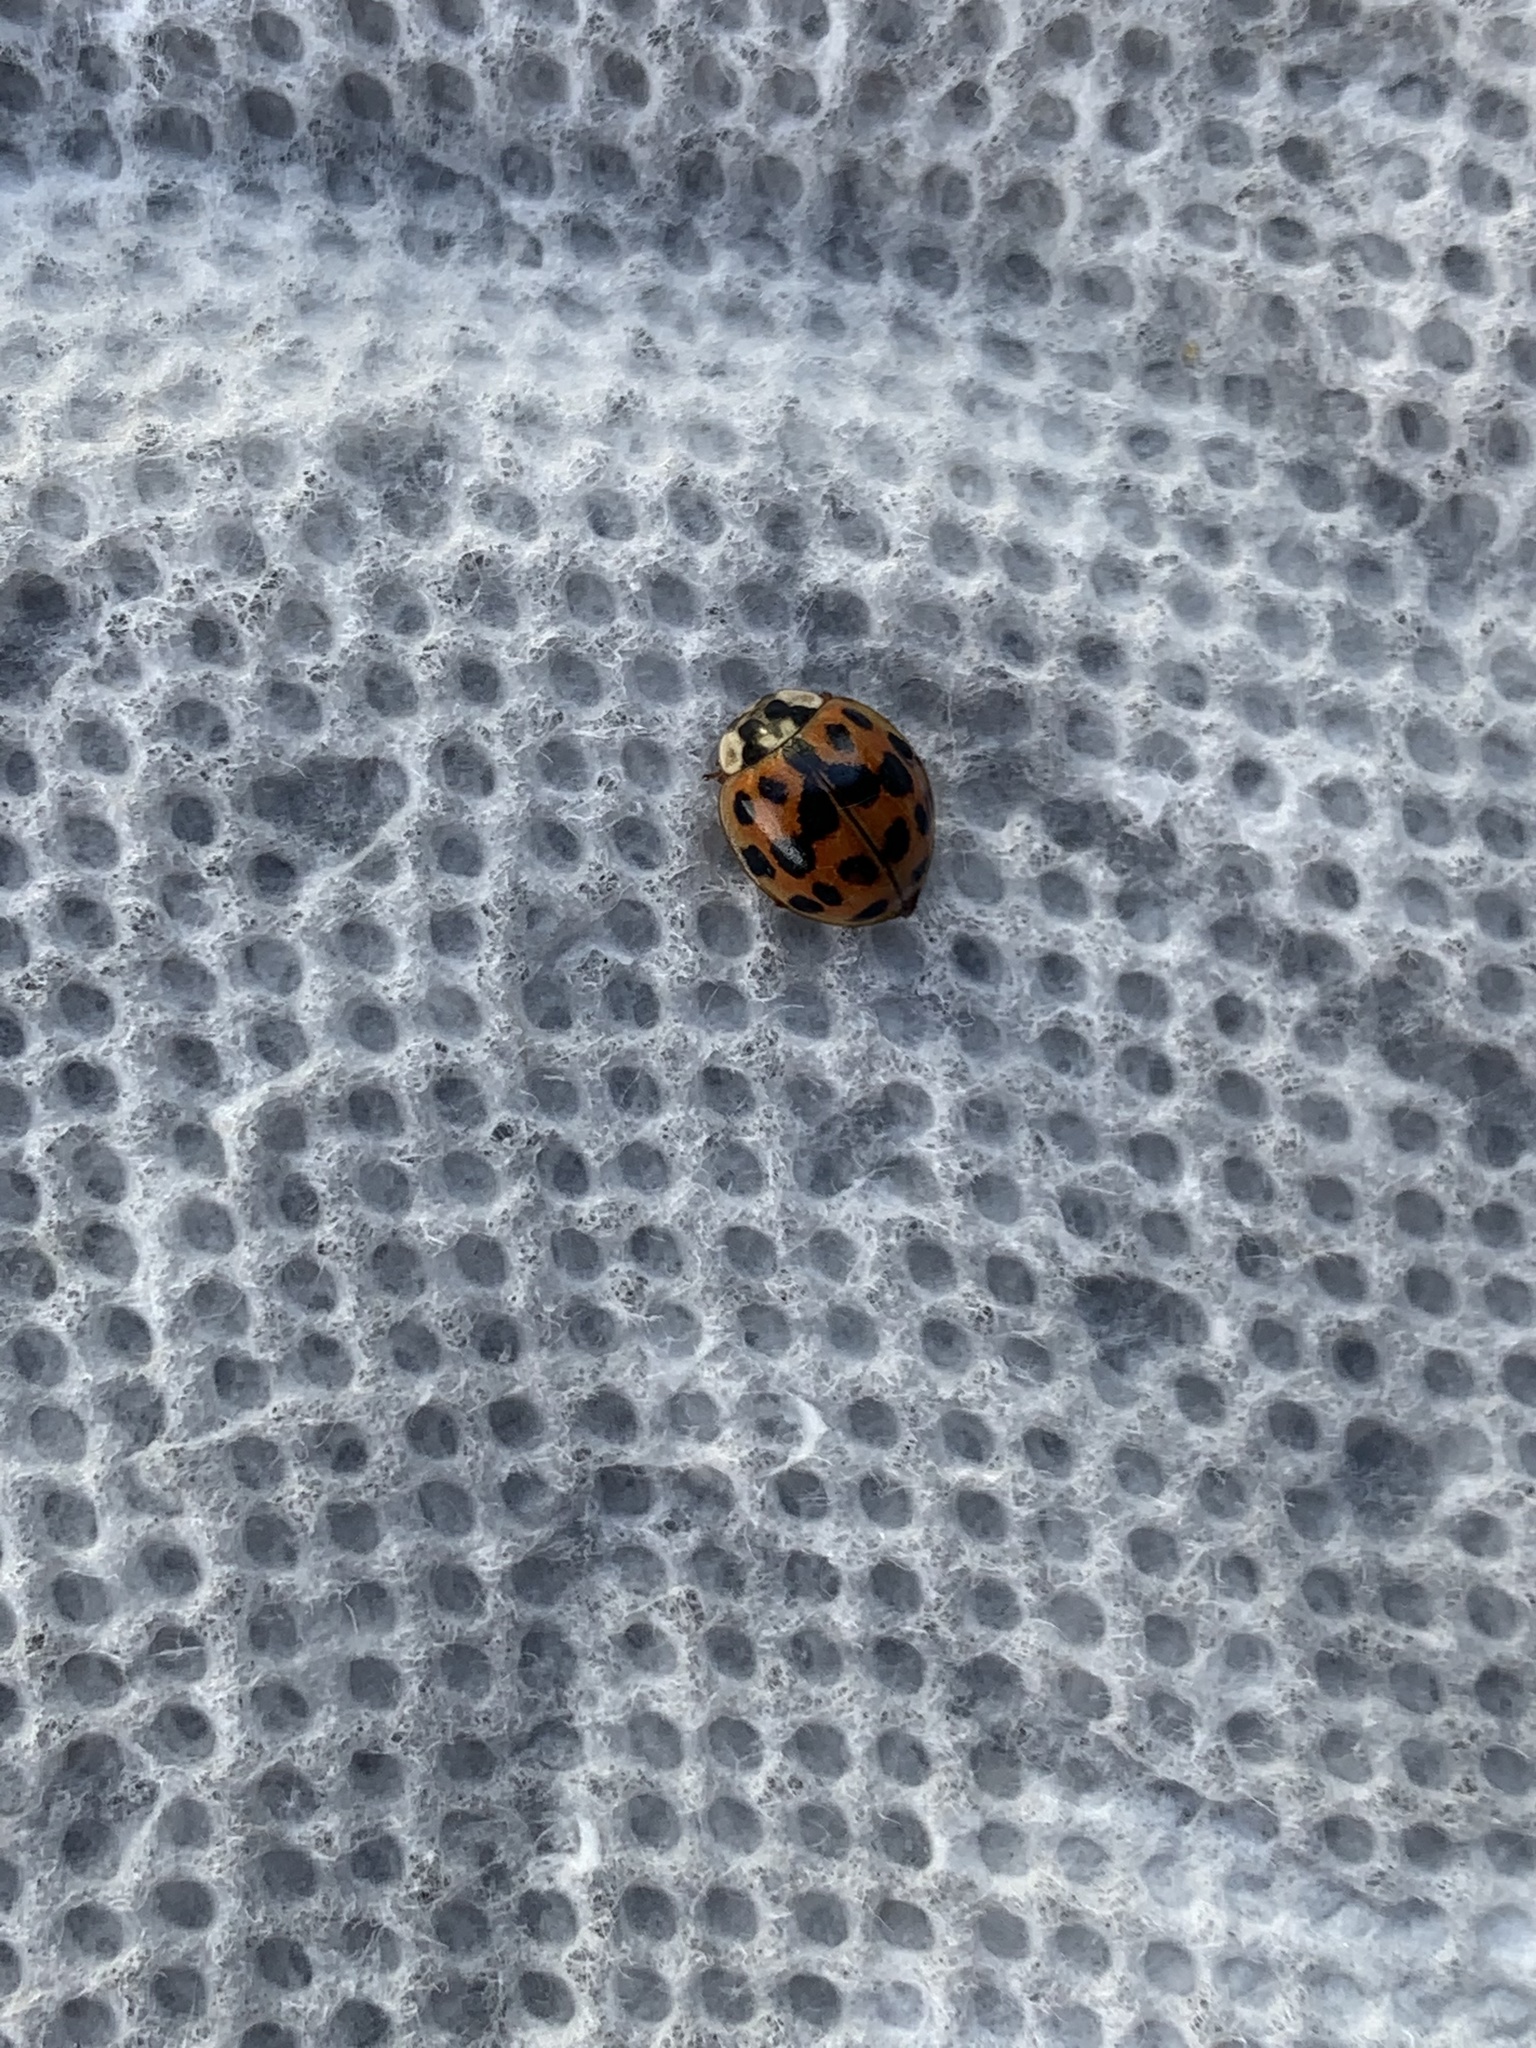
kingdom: Animalia
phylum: Arthropoda
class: Insecta
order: Coleoptera
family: Coccinellidae
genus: Harmonia
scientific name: Harmonia axyridis
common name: Harlequin ladybird
